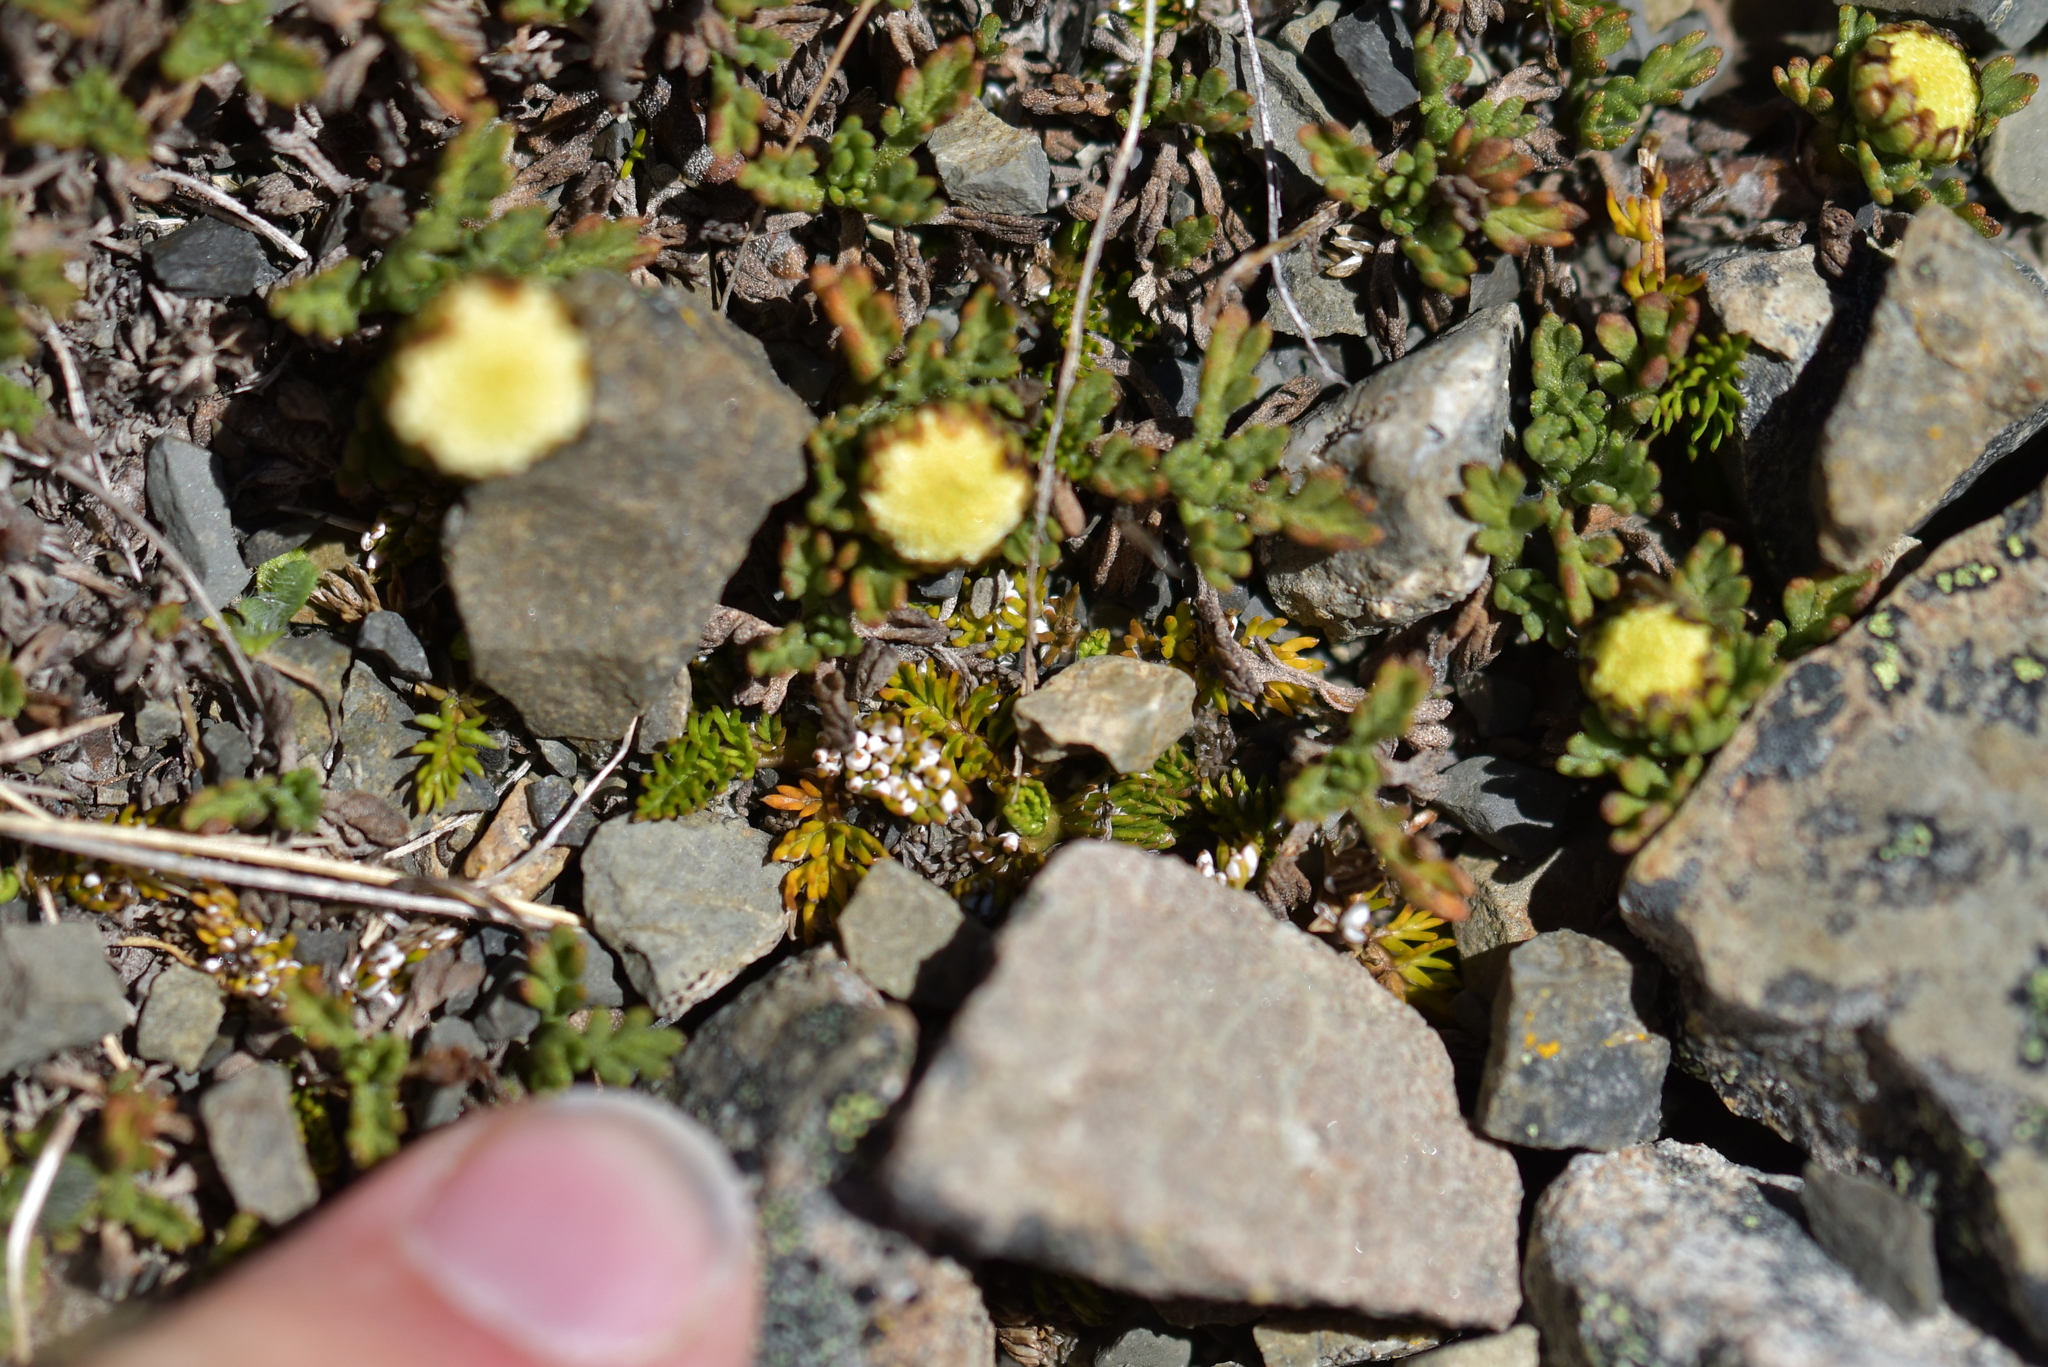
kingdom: Plantae
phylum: Tracheophyta
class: Magnoliopsida
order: Asterales
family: Asteraceae
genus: Leptinella
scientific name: Leptinella pyrethrifolia
